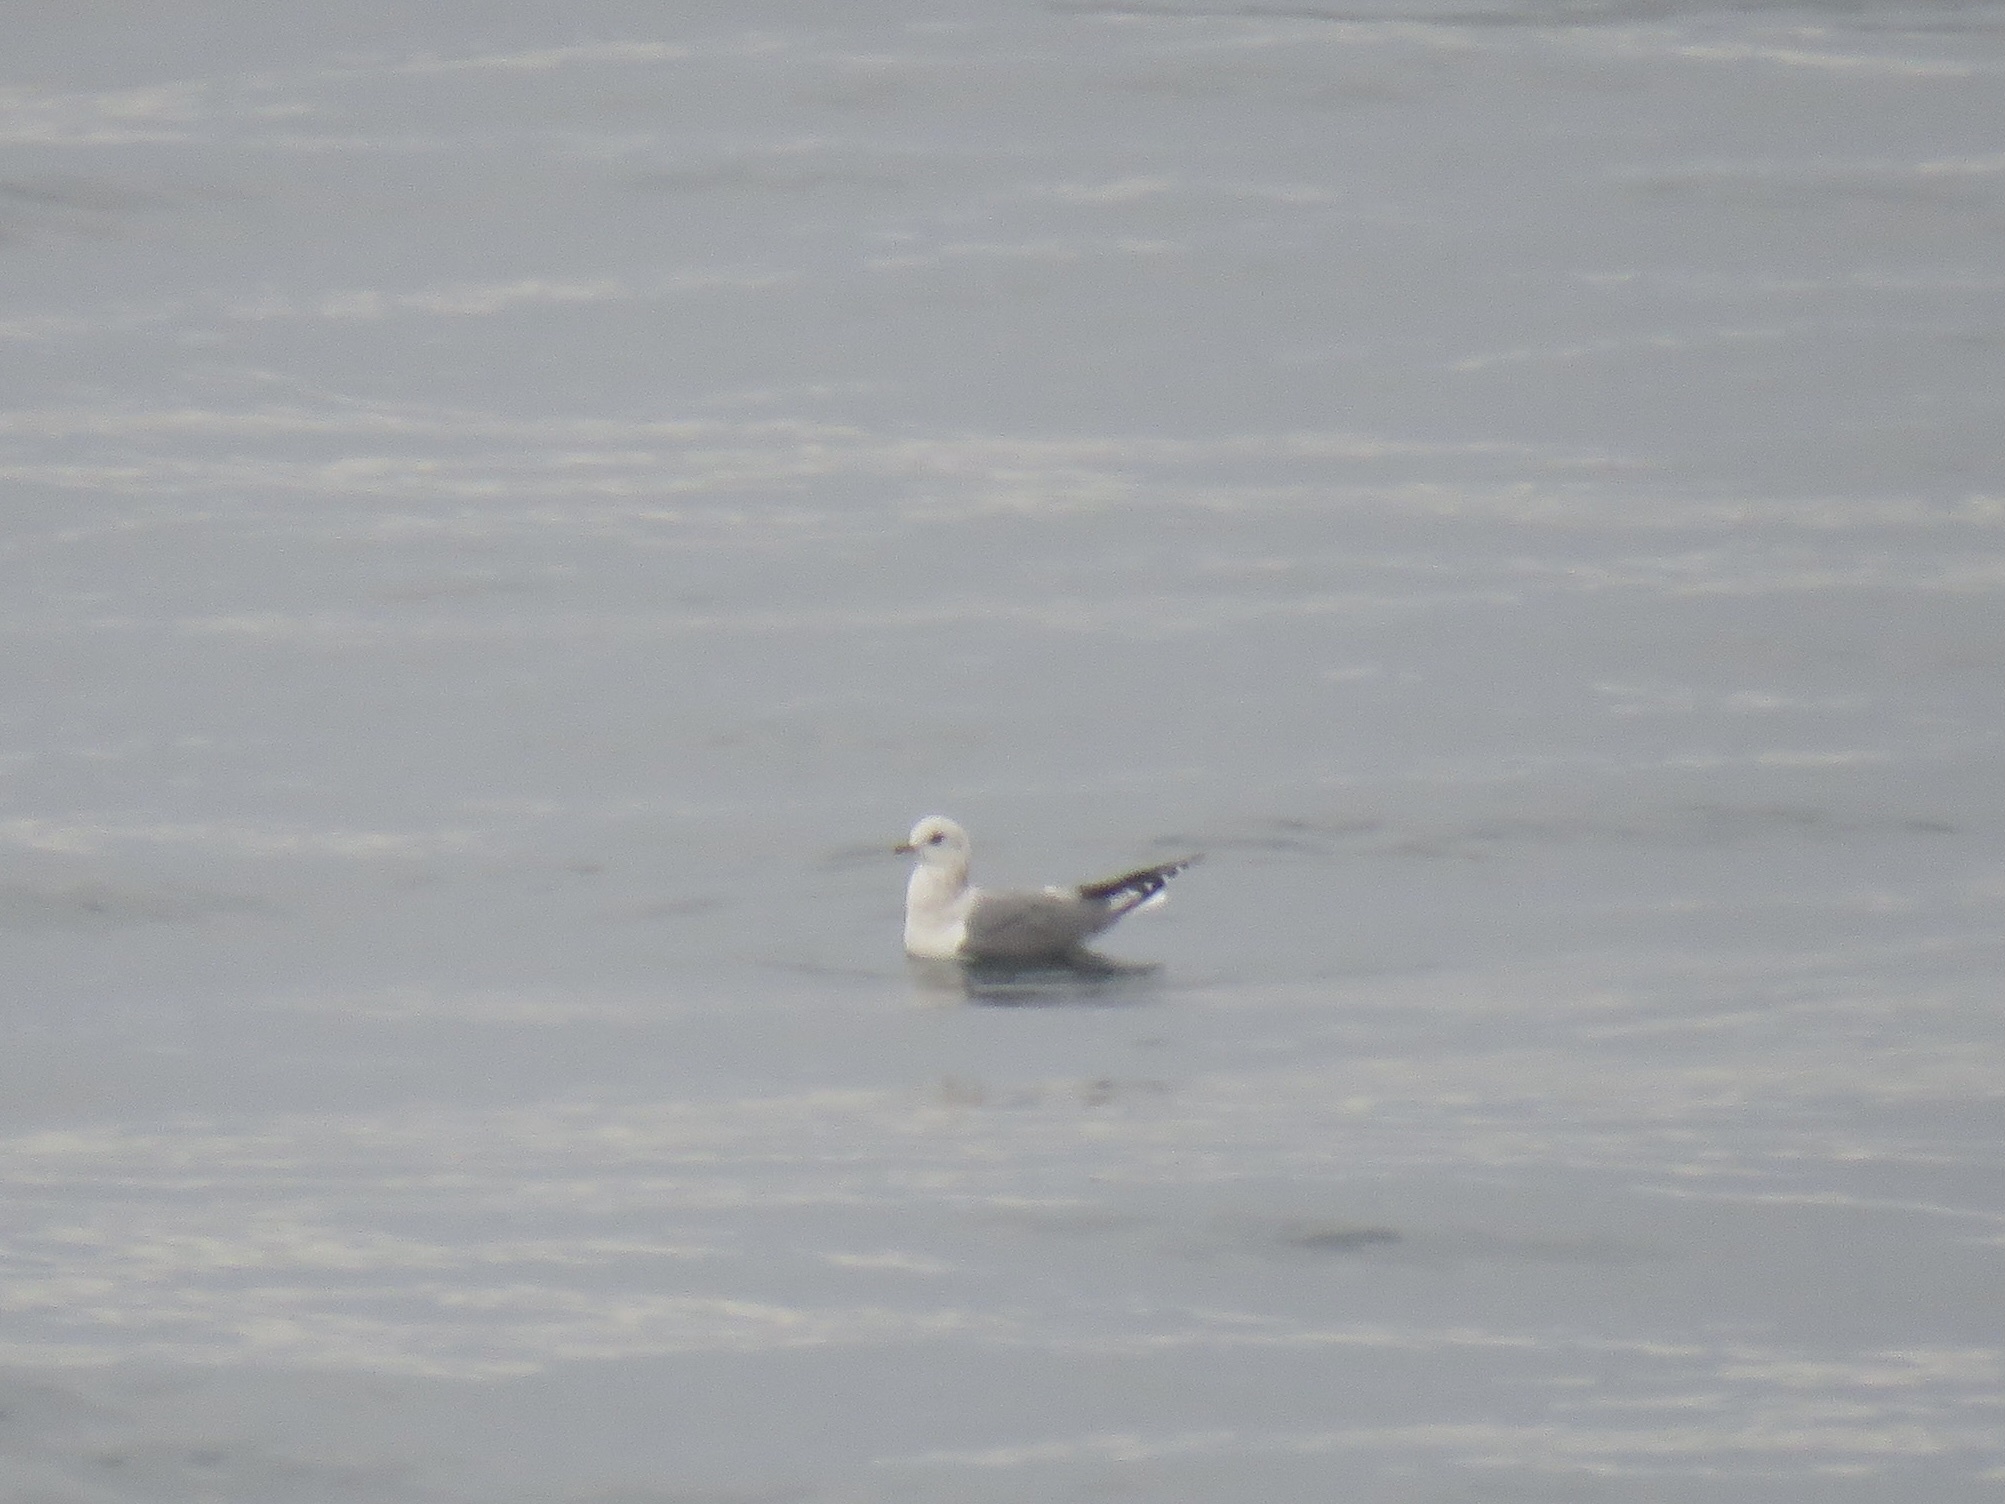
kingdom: Animalia
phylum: Chordata
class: Aves
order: Charadriiformes
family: Laridae
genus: Larus
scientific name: Larus brachyrhynchus
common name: Short-billed gull
